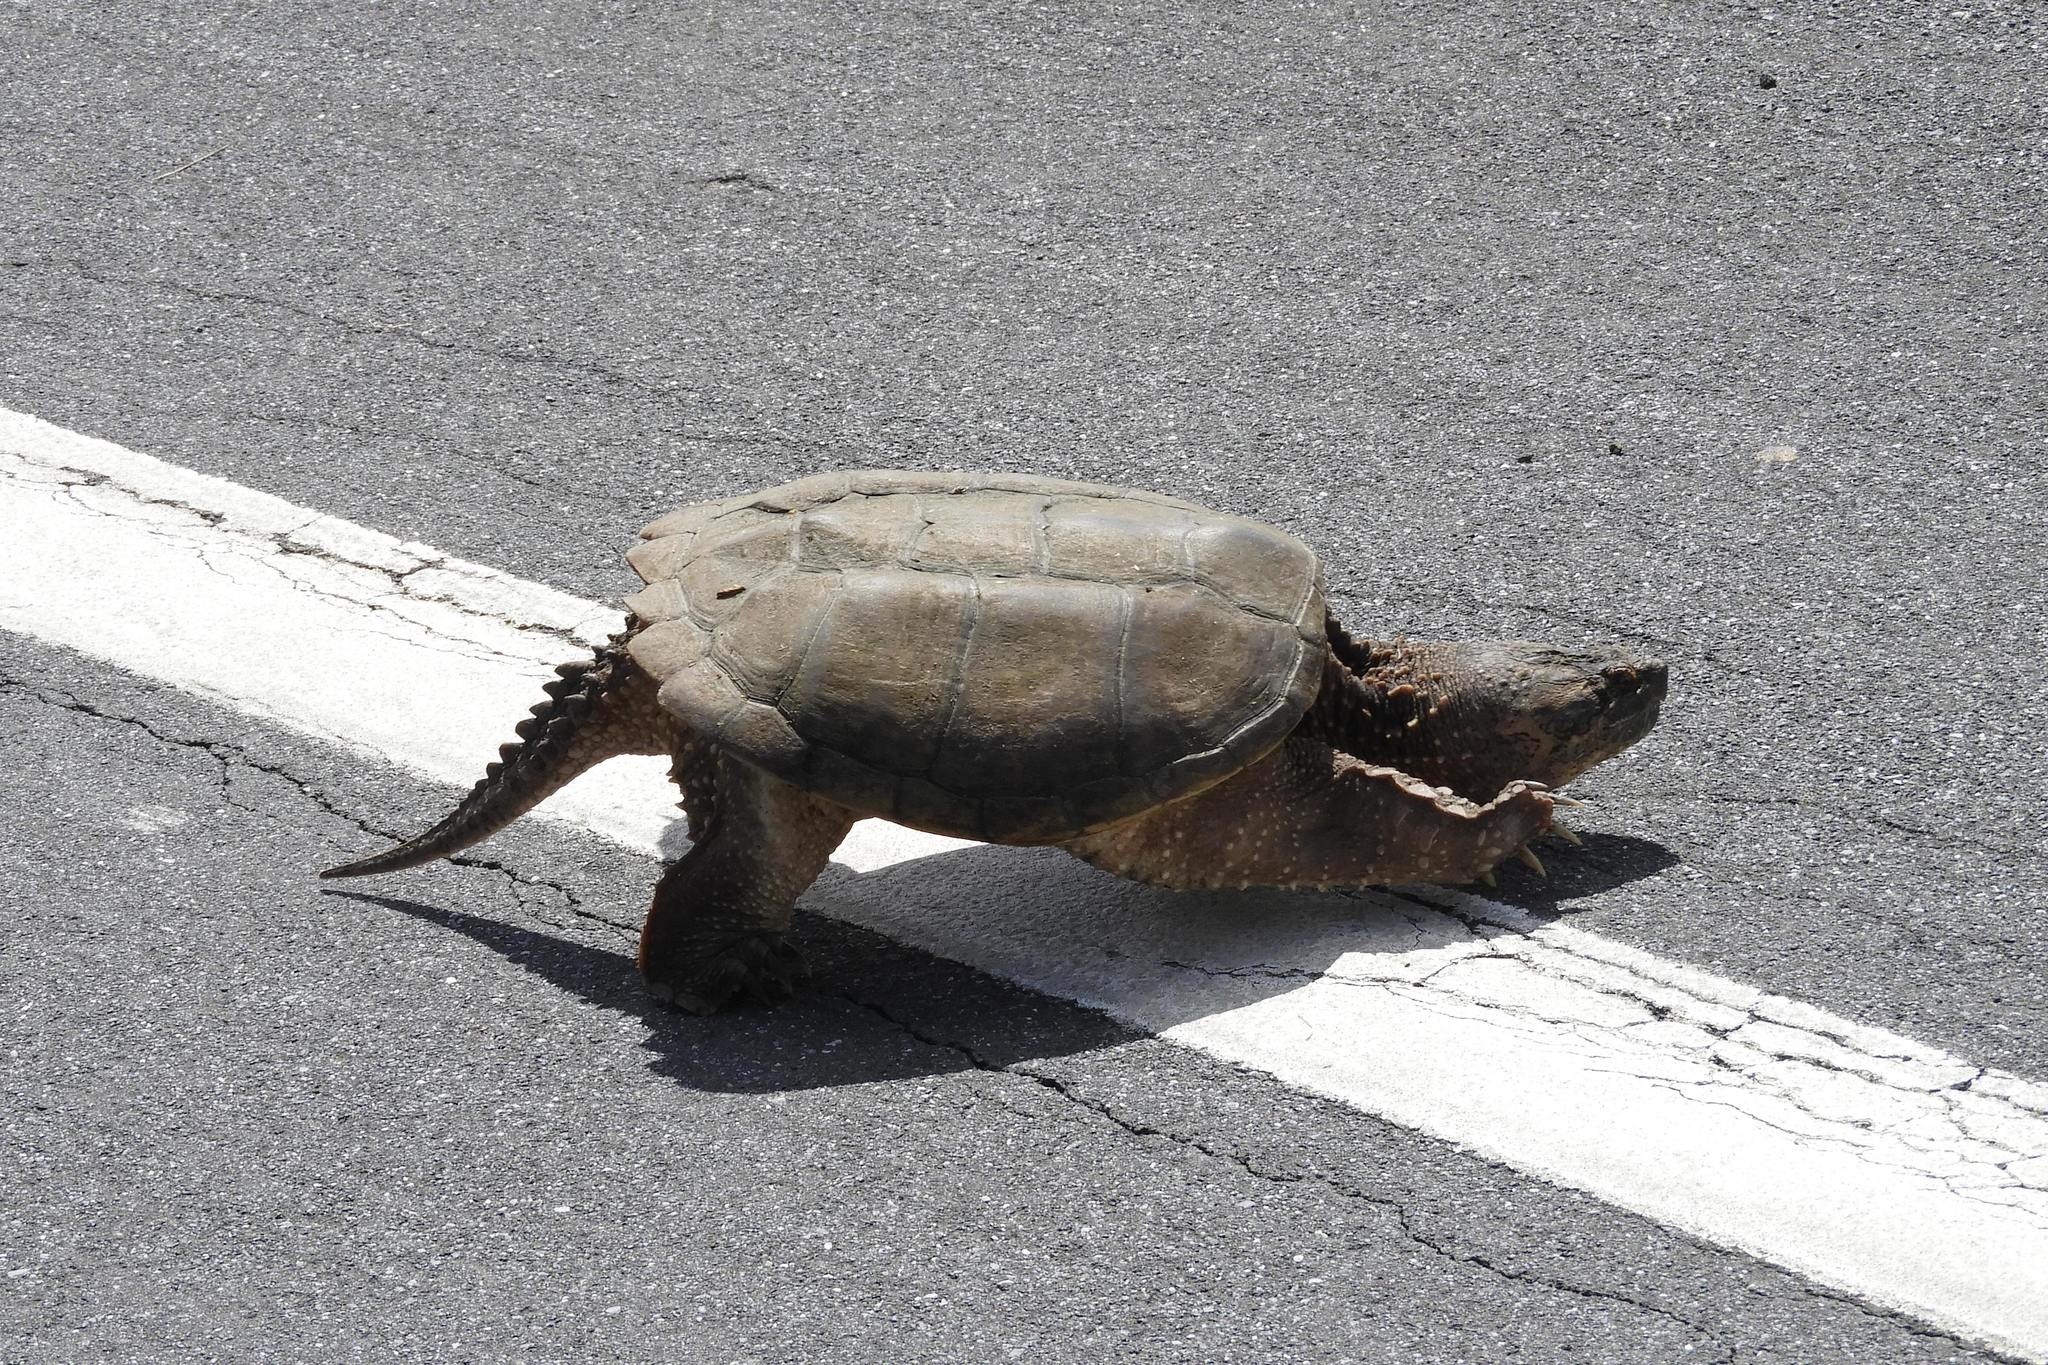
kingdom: Animalia
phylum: Chordata
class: Testudines
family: Chelydridae
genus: Chelydra
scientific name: Chelydra serpentina
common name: Common snapping turtle
